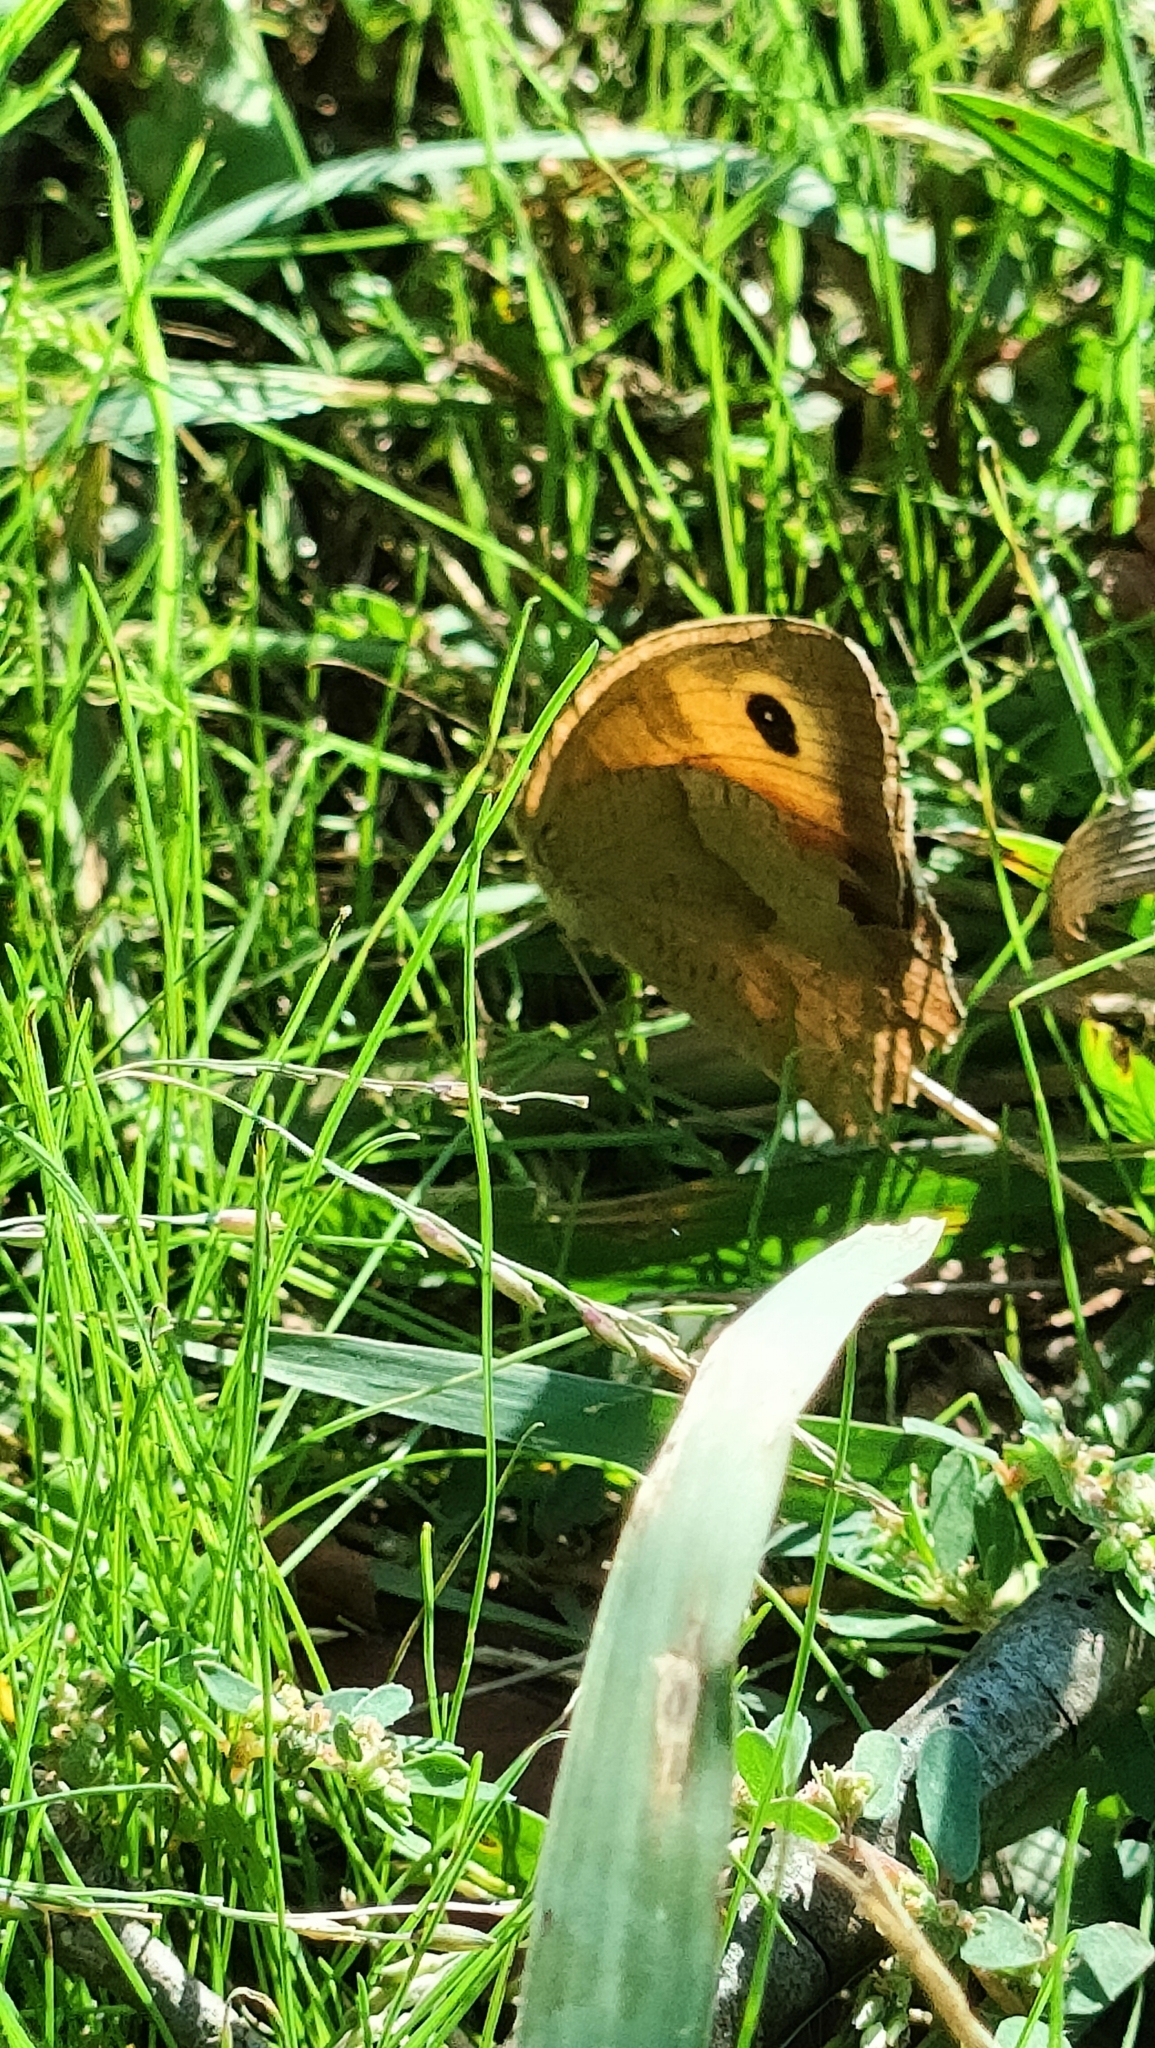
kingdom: Animalia
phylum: Arthropoda
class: Insecta
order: Lepidoptera
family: Nymphalidae
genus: Maniola
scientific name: Maniola jurtina
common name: Meadow brown
